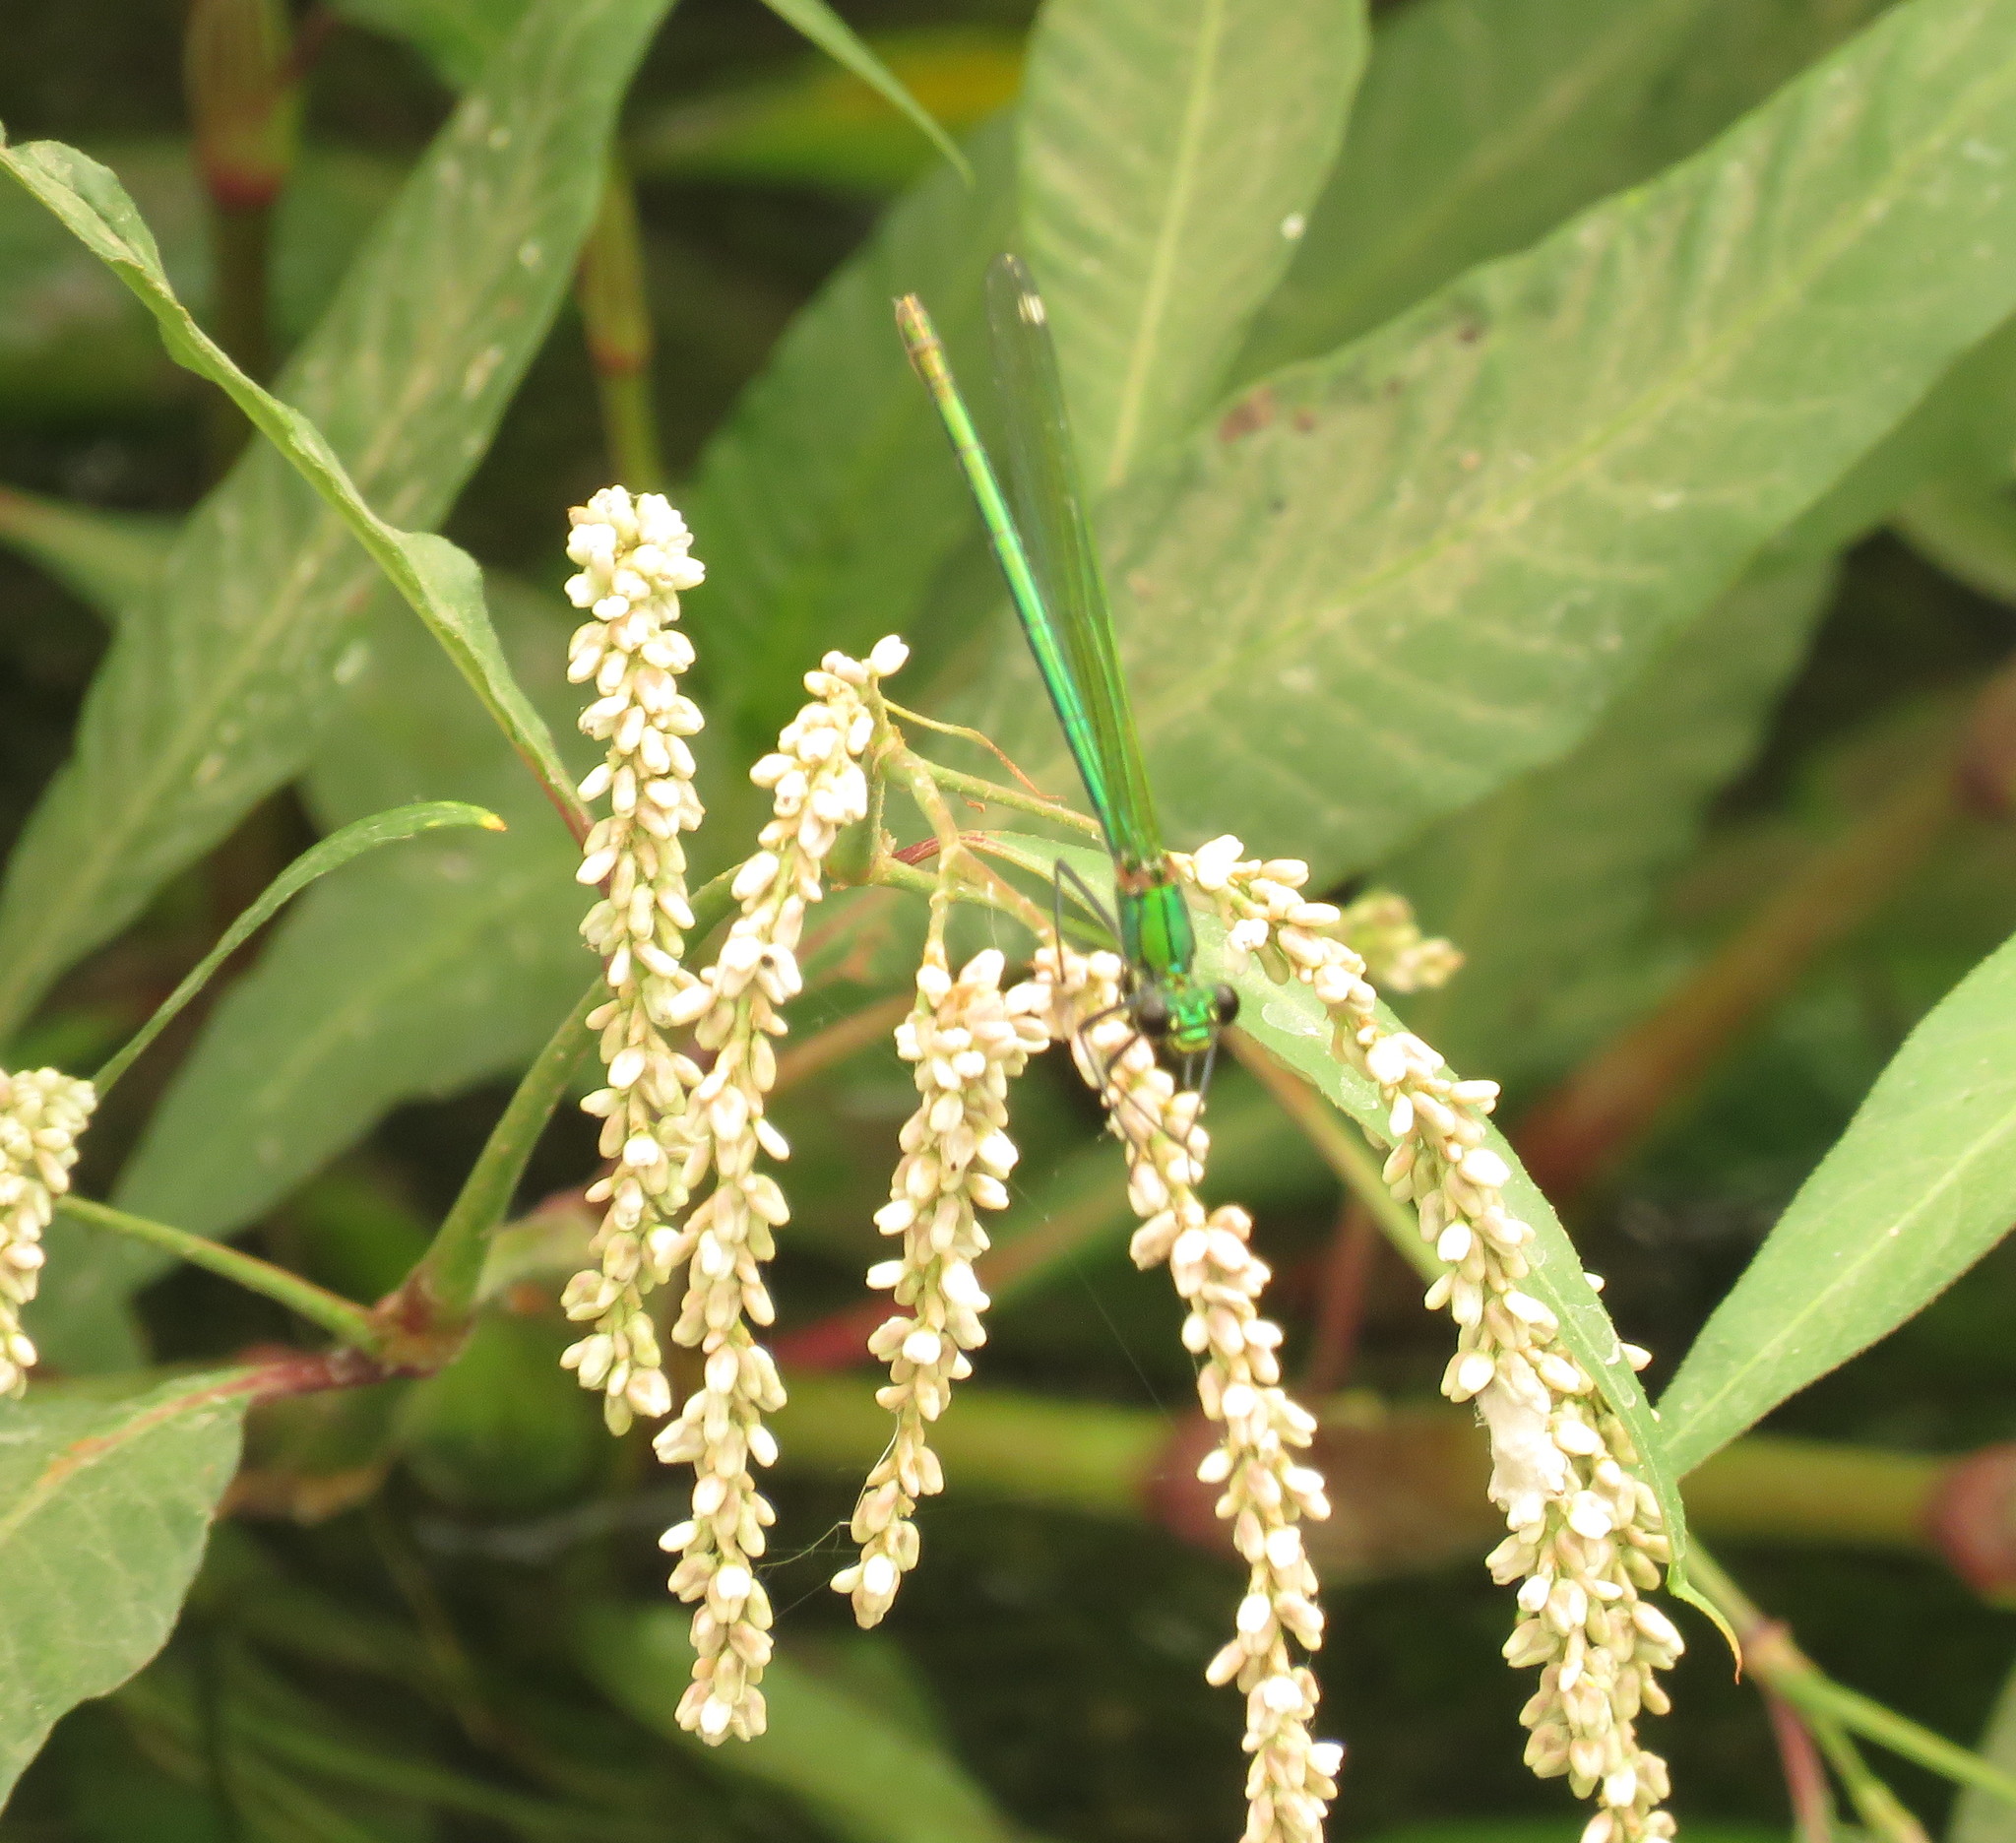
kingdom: Animalia
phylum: Arthropoda
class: Insecta
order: Odonata
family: Calopterygidae
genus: Calopteryx
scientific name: Calopteryx splendens
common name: Banded demoiselle
